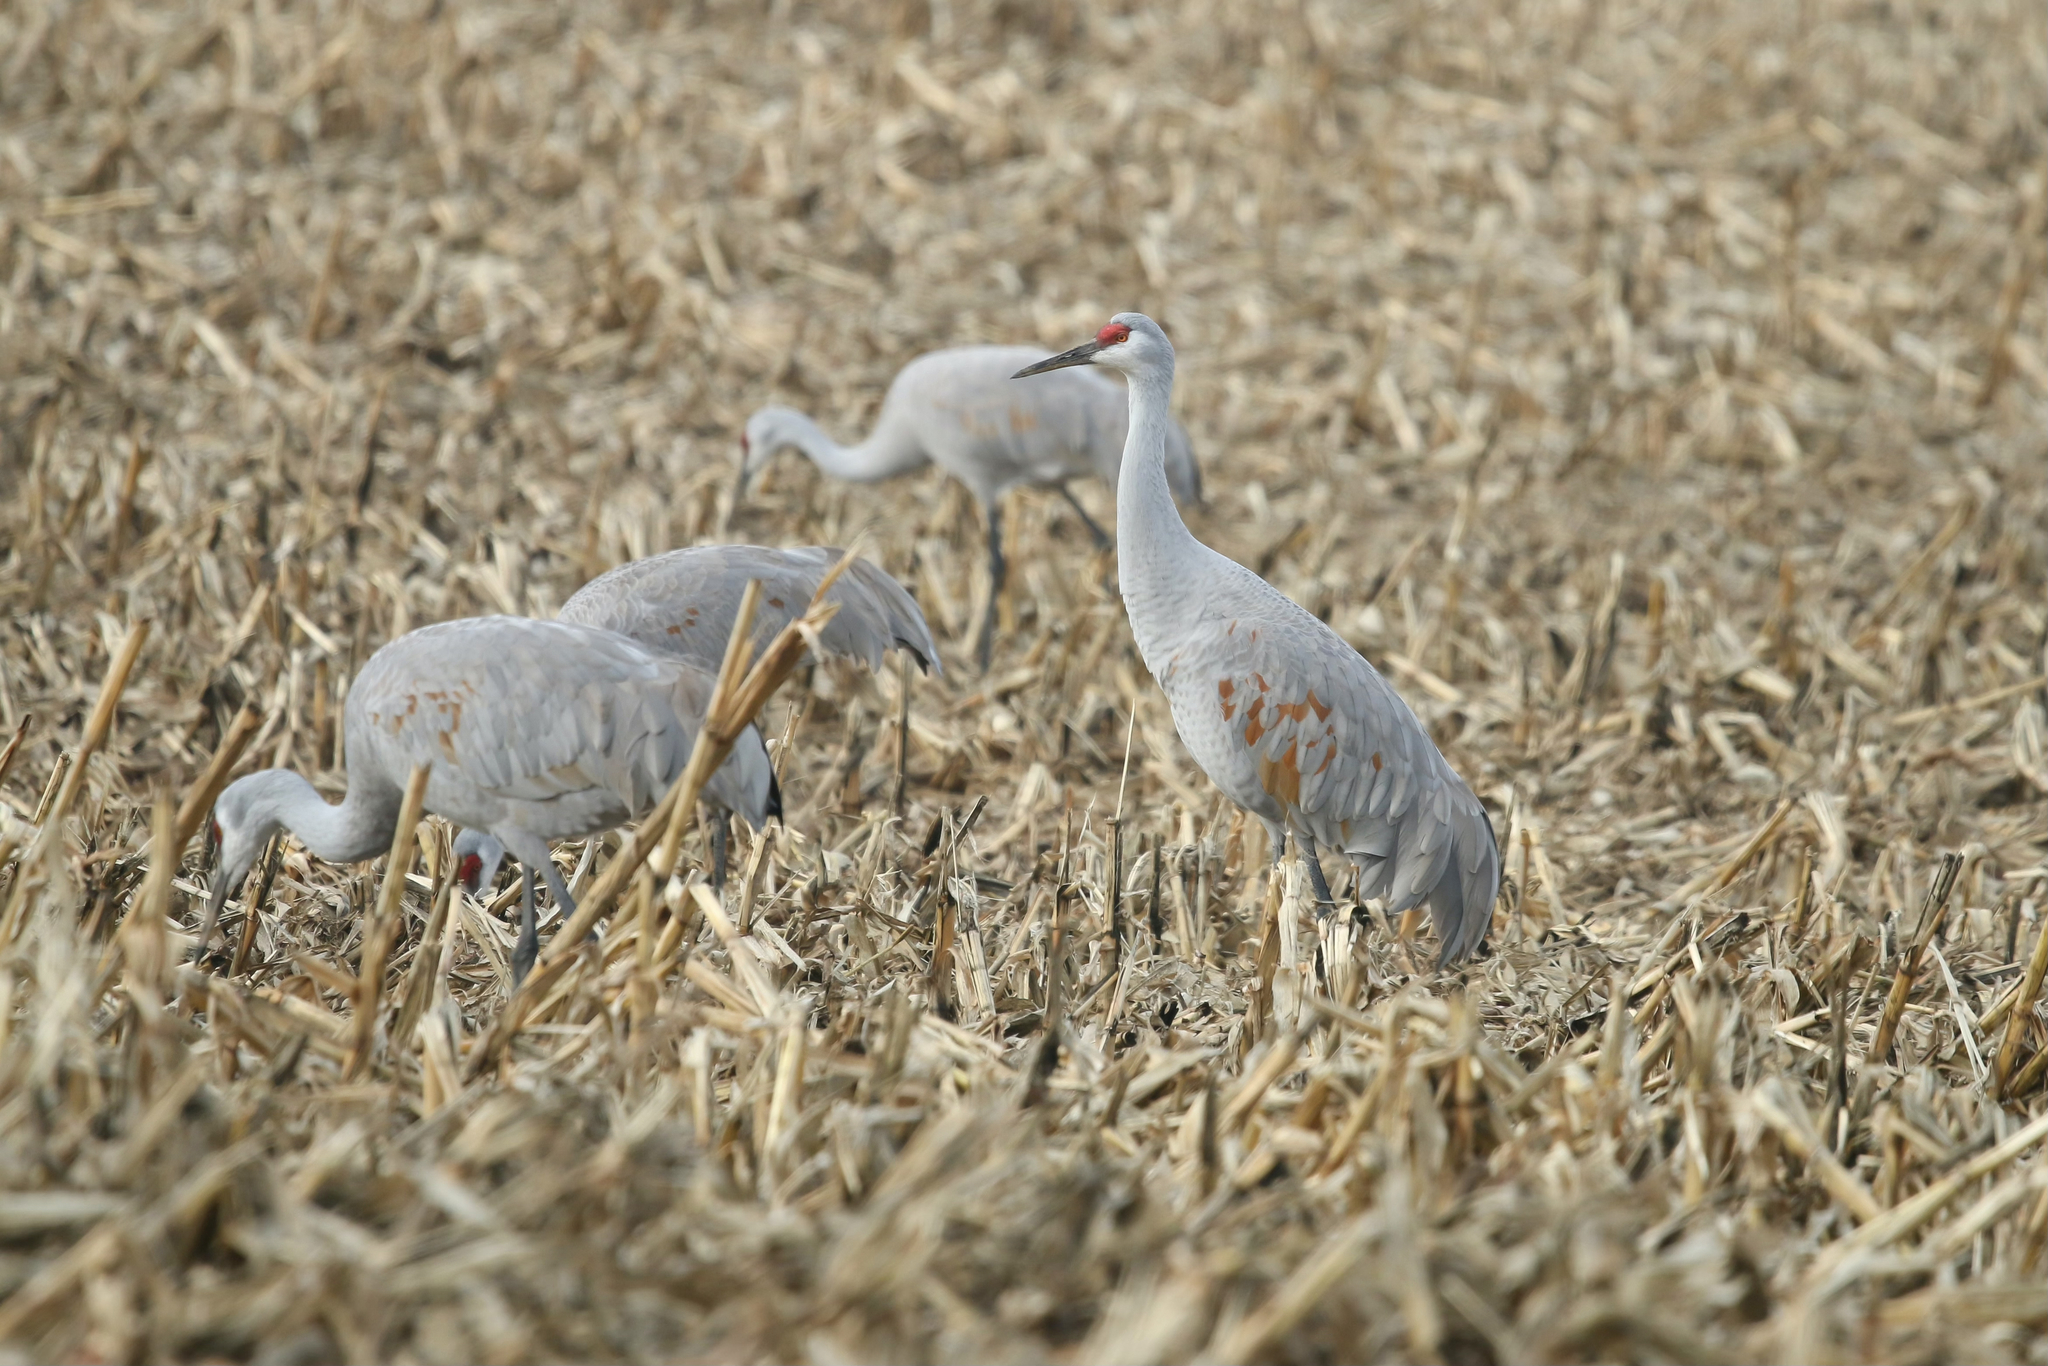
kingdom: Animalia
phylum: Chordata
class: Aves
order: Gruiformes
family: Gruidae
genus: Grus
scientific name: Grus canadensis
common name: Sandhill crane
